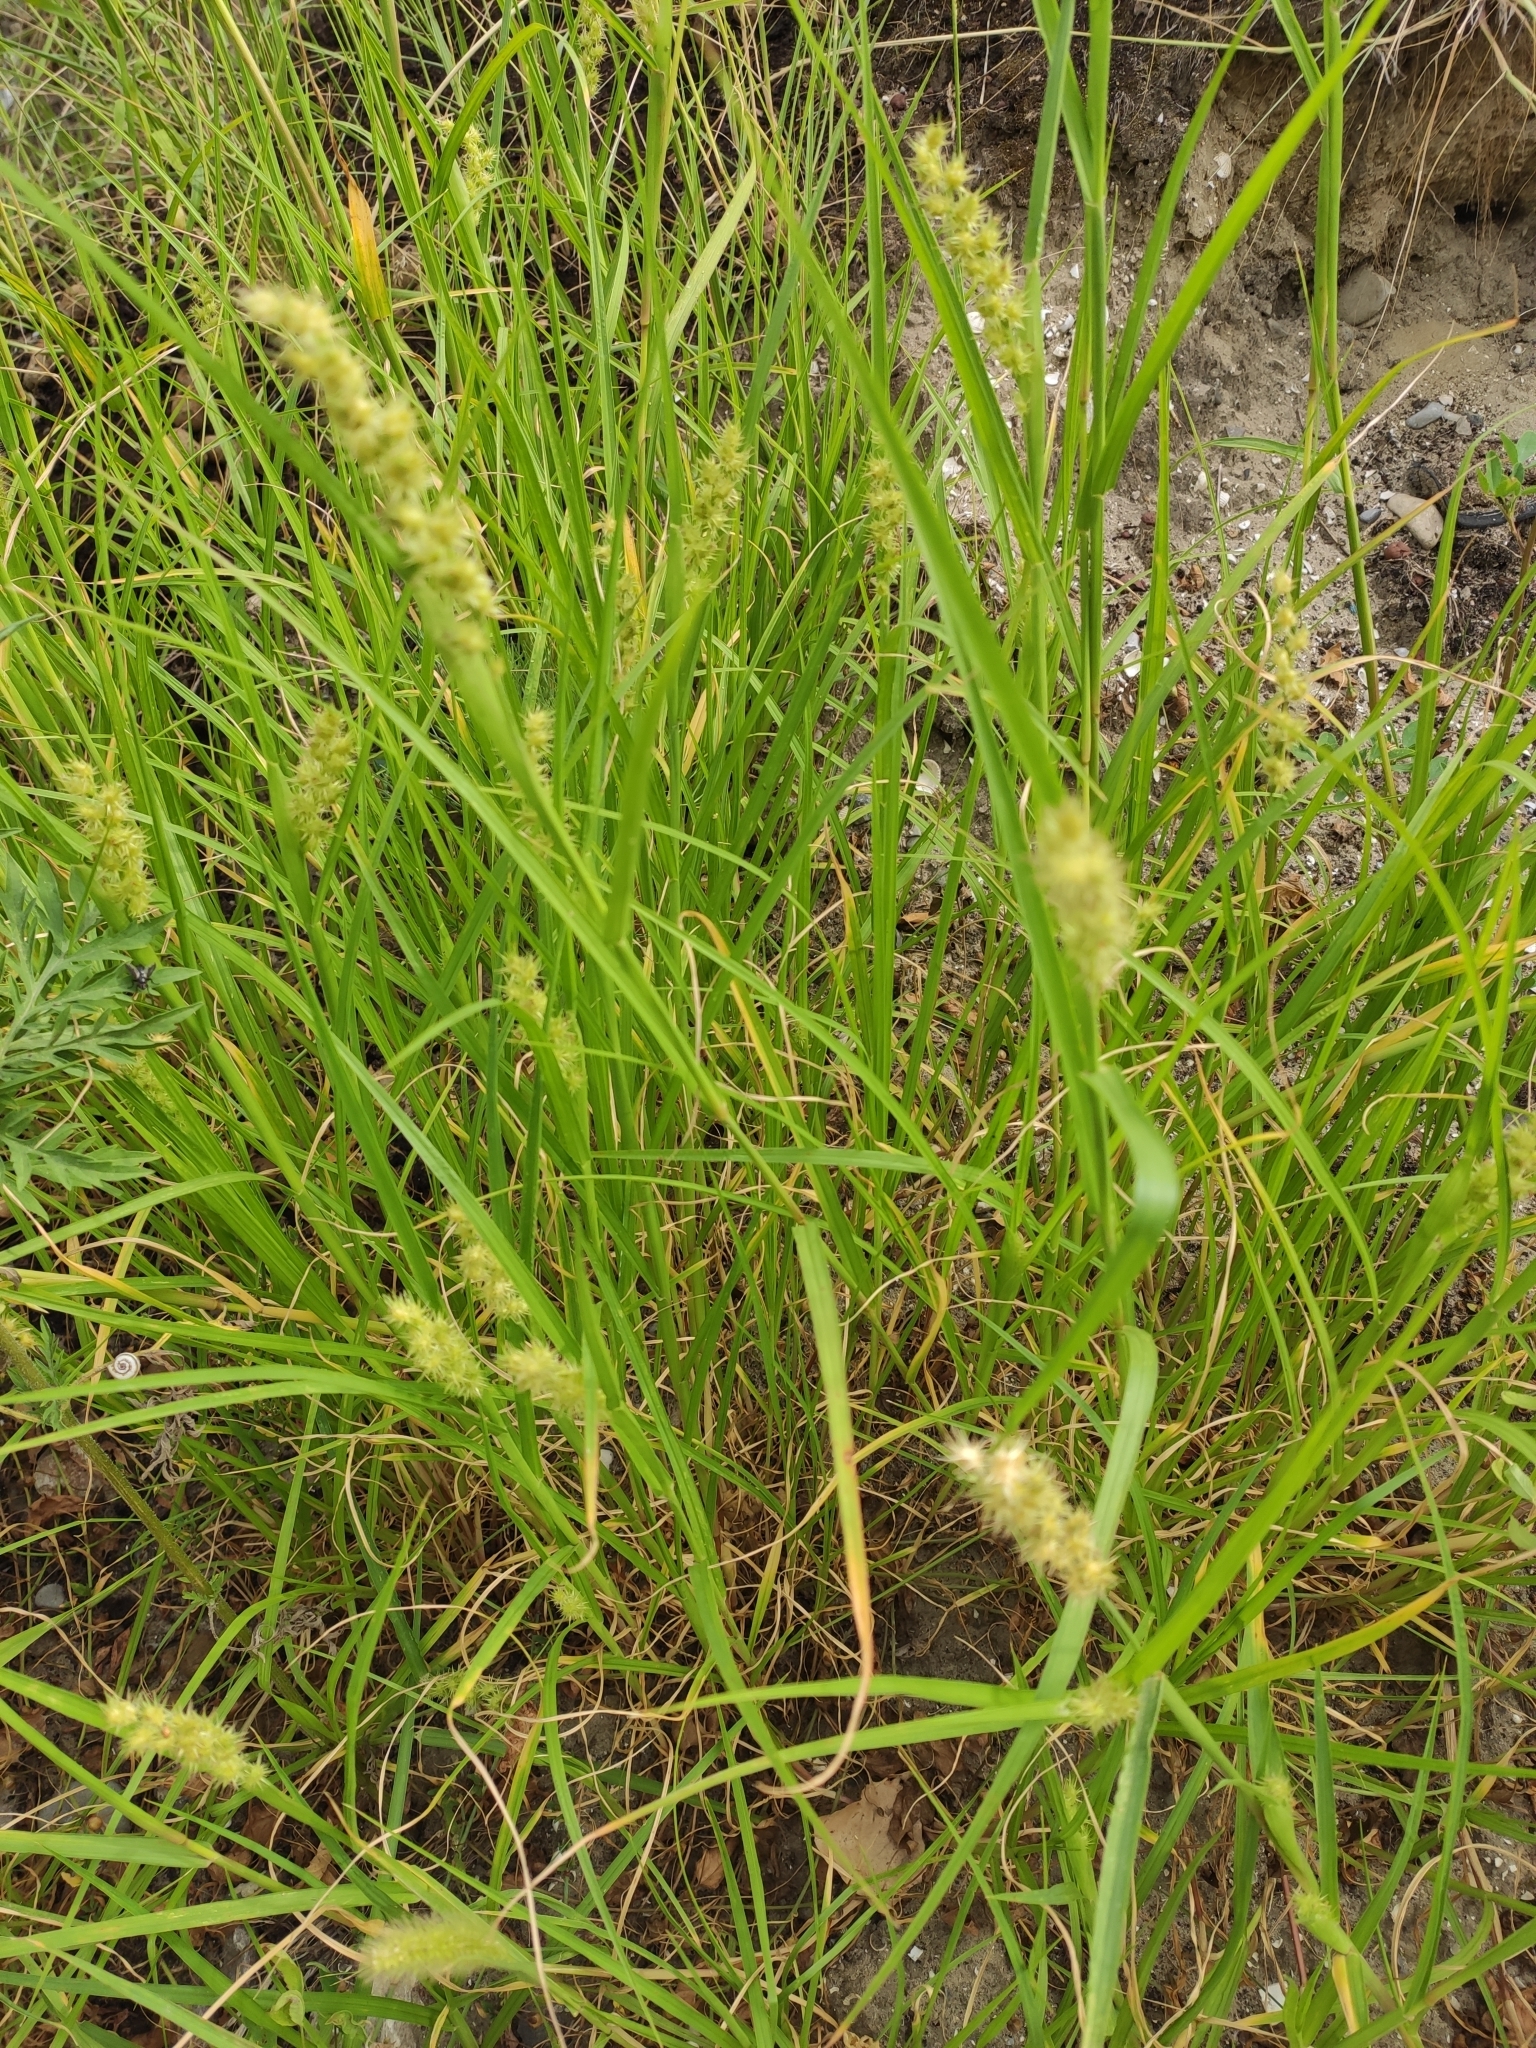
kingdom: Plantae
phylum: Tracheophyta
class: Liliopsida
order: Poales
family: Poaceae
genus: Cenchrus
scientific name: Cenchrus longispinus
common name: Mat sandbur
